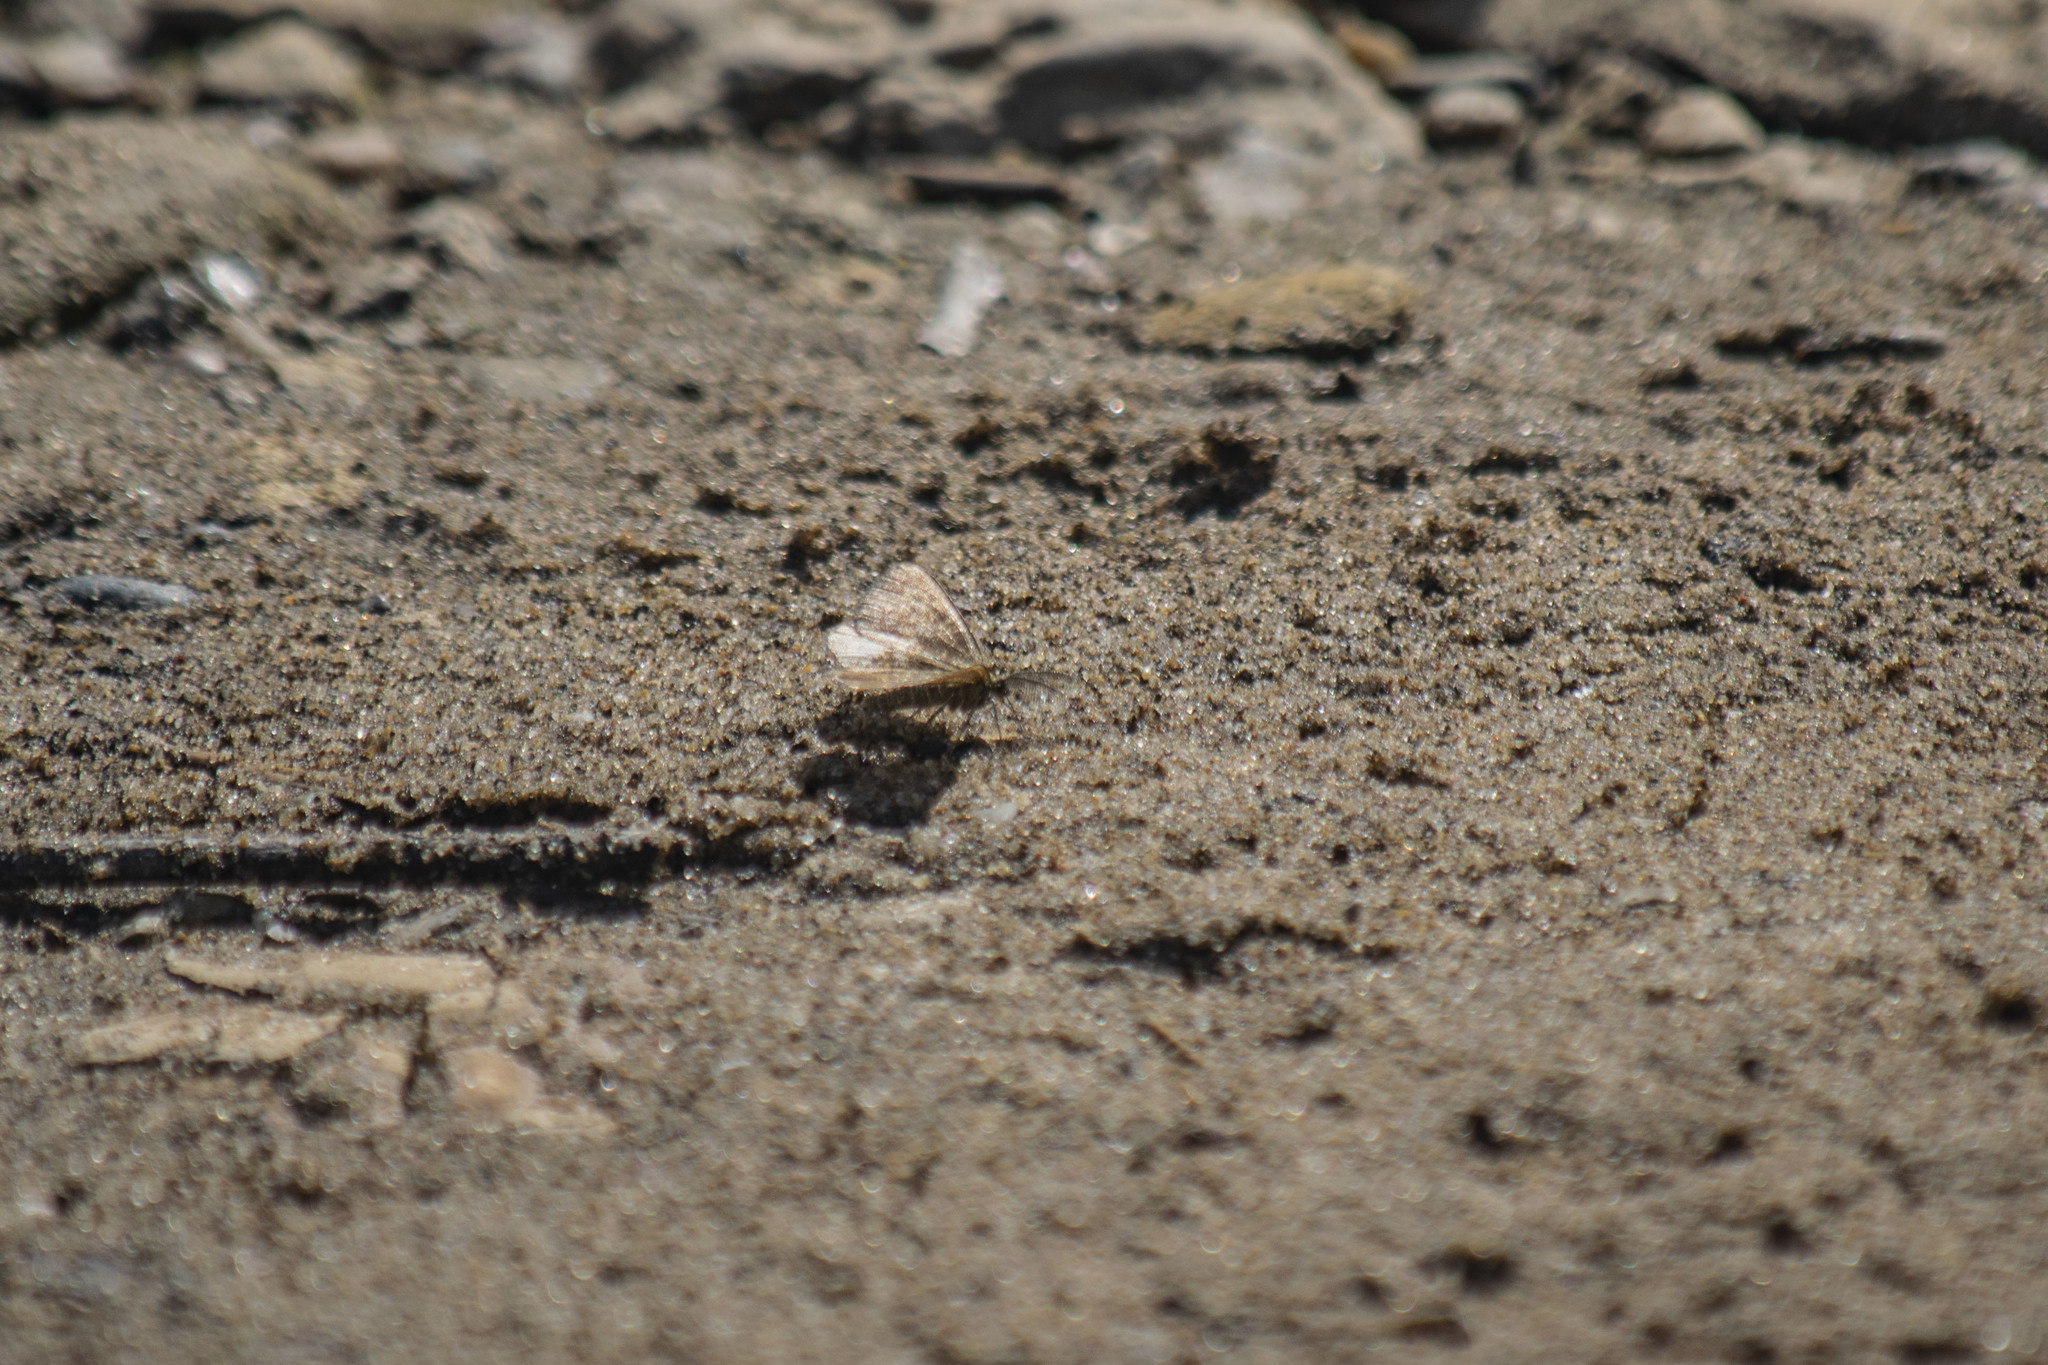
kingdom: Animalia
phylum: Arthropoda
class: Insecta
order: Lepidoptera
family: Geometridae
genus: Ematurga
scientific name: Ematurga atomaria
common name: Common heath
